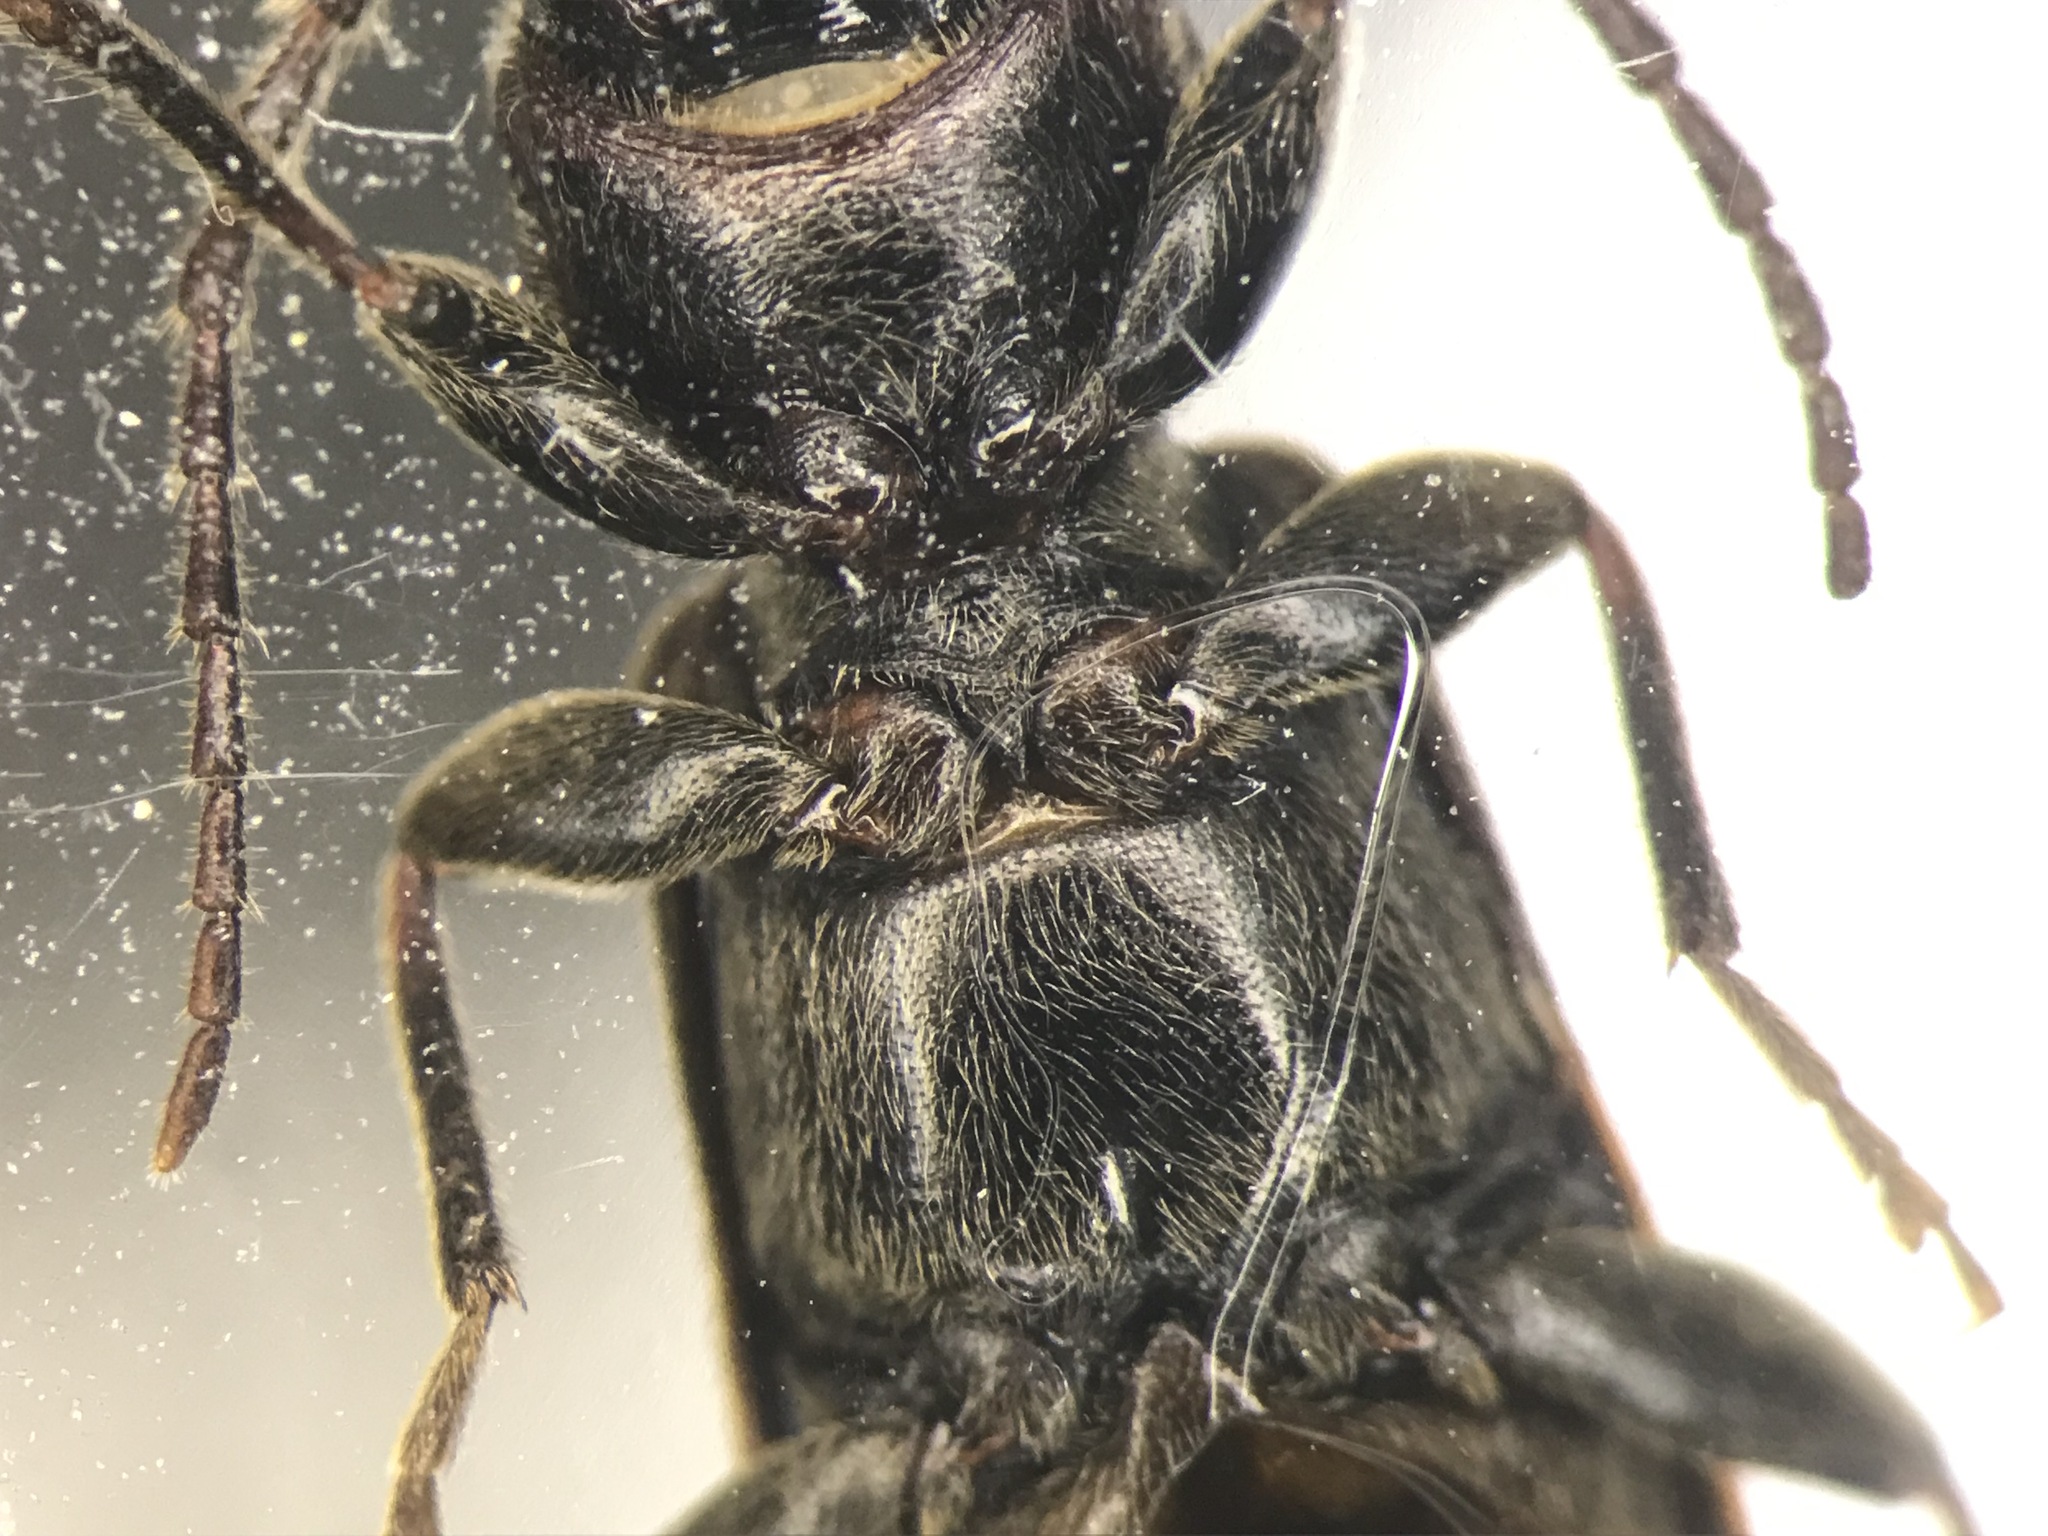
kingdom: Animalia
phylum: Arthropoda
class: Insecta
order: Coleoptera
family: Cerambycidae
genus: Tetropium
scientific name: Tetropium schwarzianum
